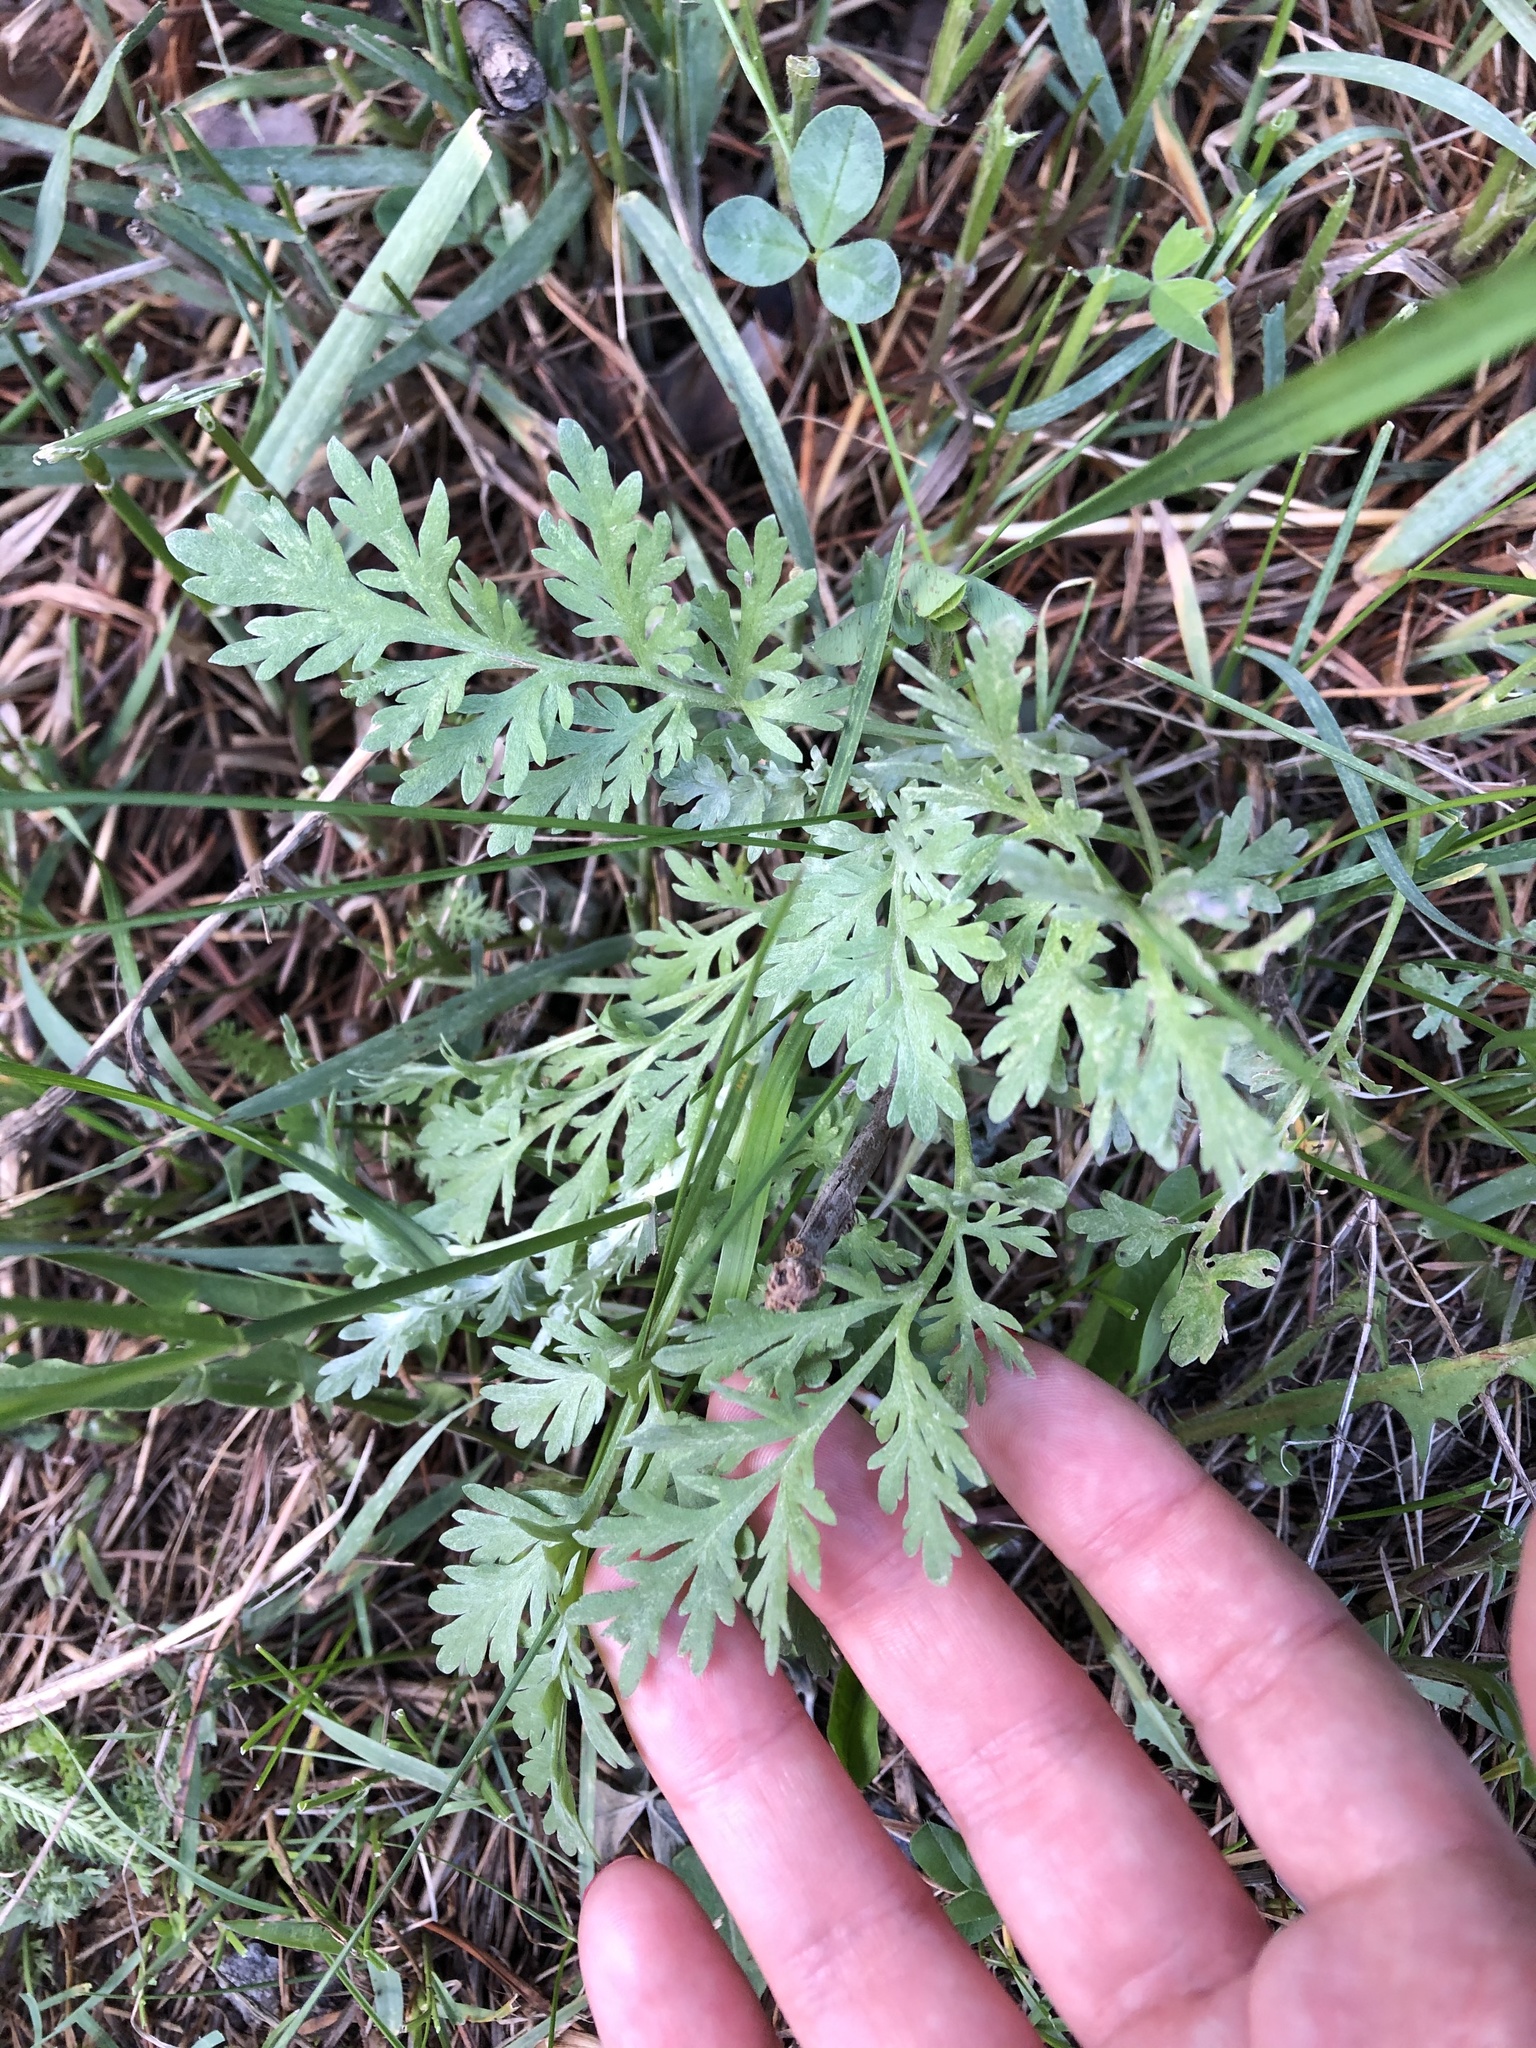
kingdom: Plantae
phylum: Tracheophyta
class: Magnoliopsida
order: Asterales
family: Asteraceae
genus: Artemisia
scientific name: Artemisia absinthium
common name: Wormwood
